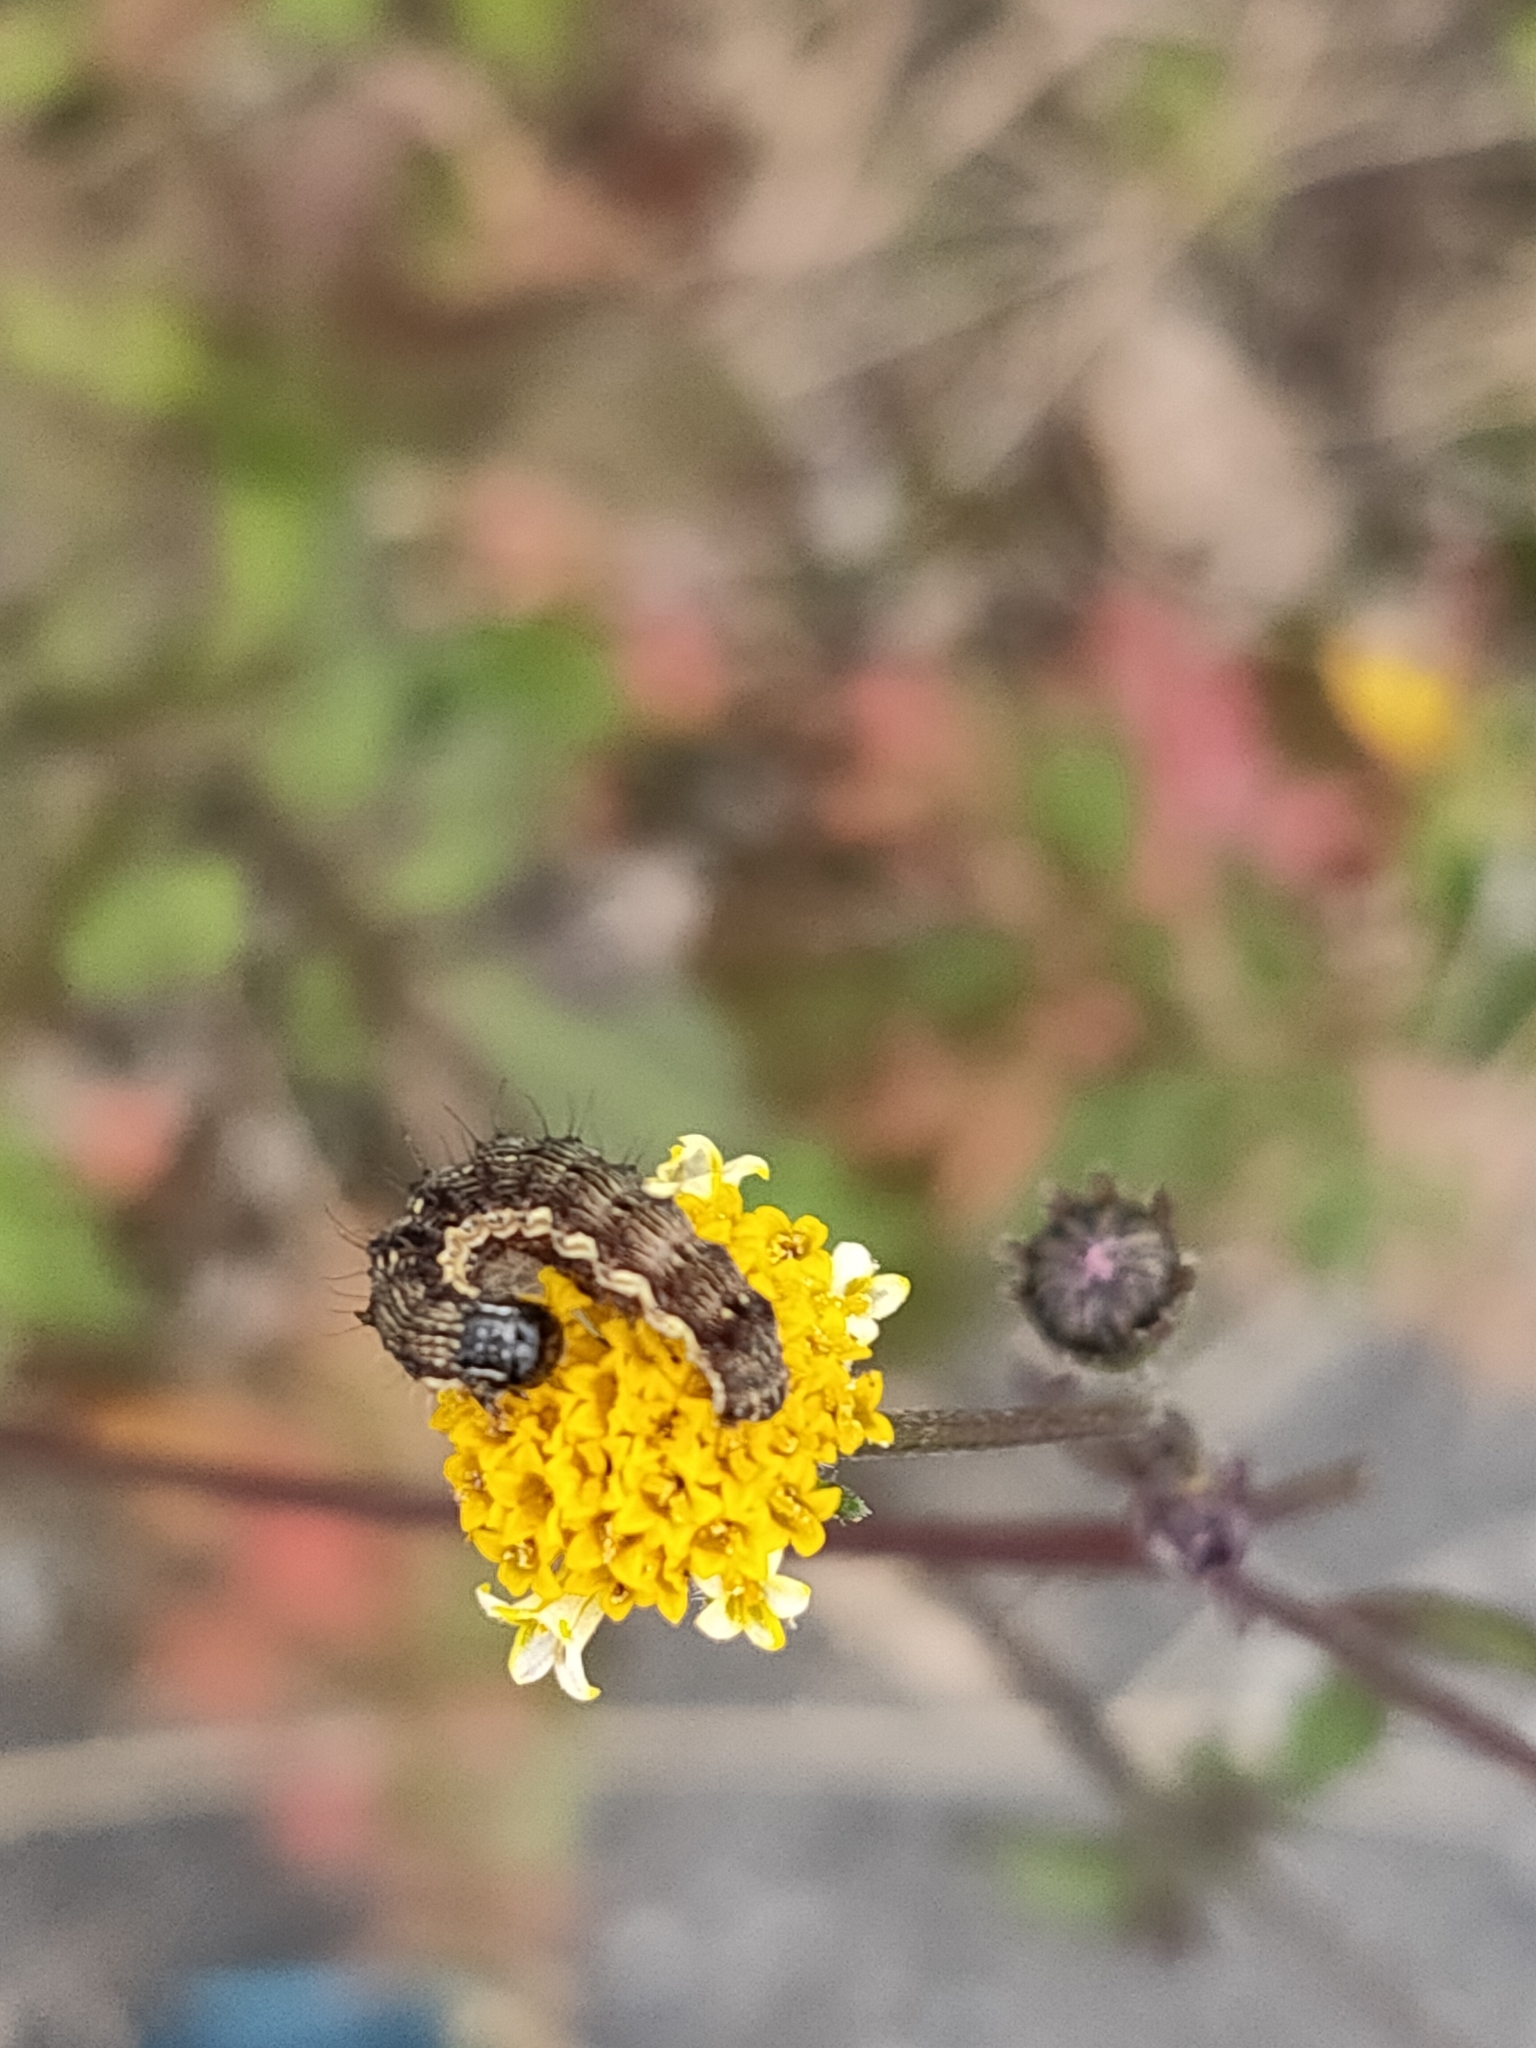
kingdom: Animalia
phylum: Arthropoda
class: Insecta
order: Lepidoptera
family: Noctuidae
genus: Helicoverpa
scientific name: Helicoverpa armigera
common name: Cotton bollworm
